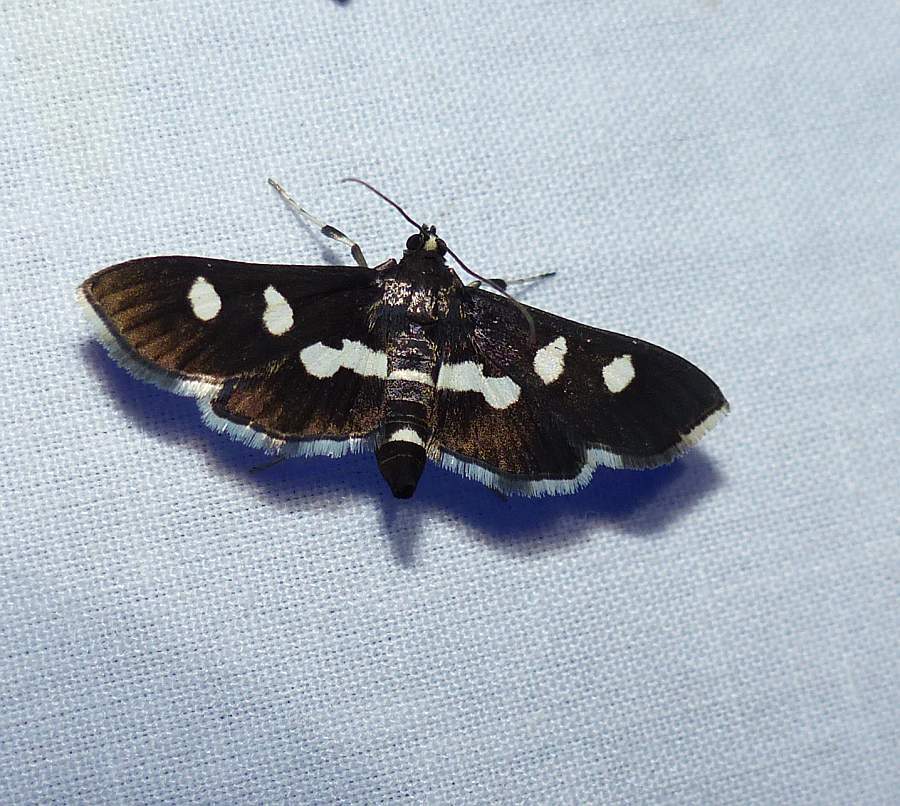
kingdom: Animalia
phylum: Arthropoda
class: Insecta
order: Lepidoptera
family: Crambidae
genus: Desmia
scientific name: Desmia
